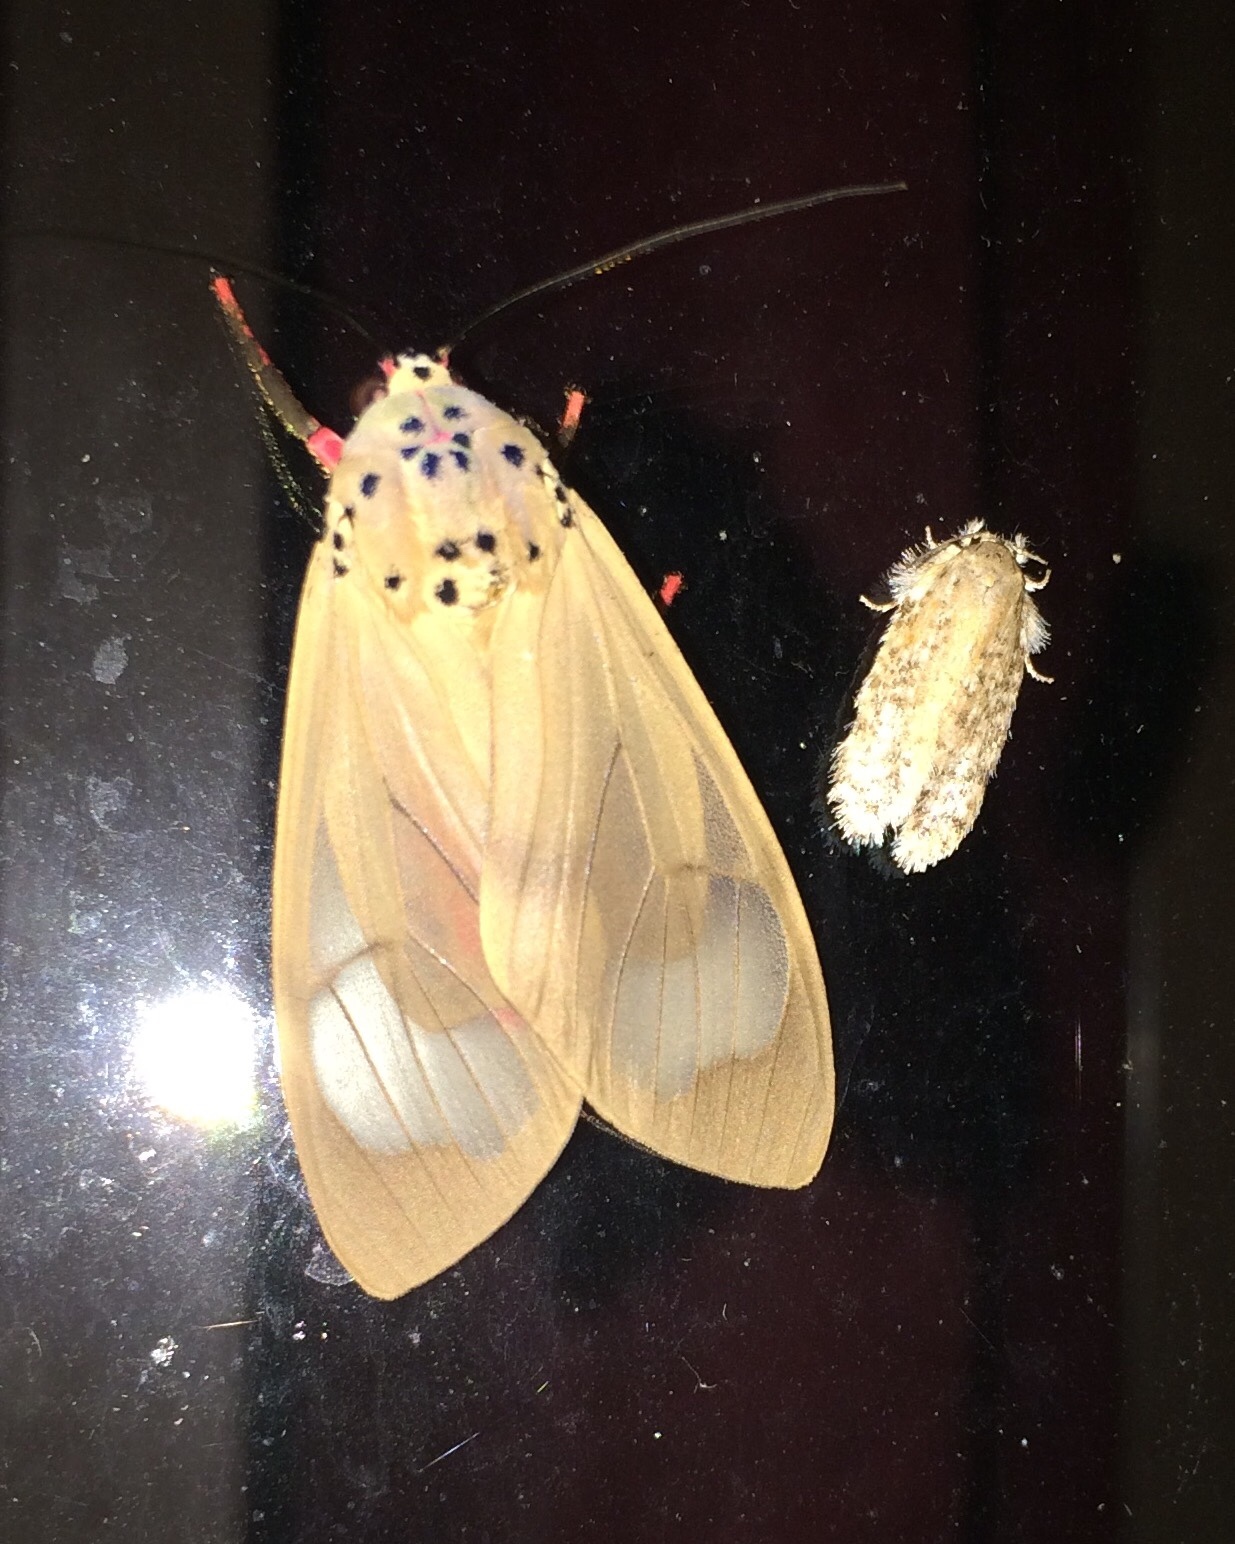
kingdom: Animalia
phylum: Arthropoda
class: Insecta
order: Lepidoptera
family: Erebidae
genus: Amerila
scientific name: Amerila affinis
